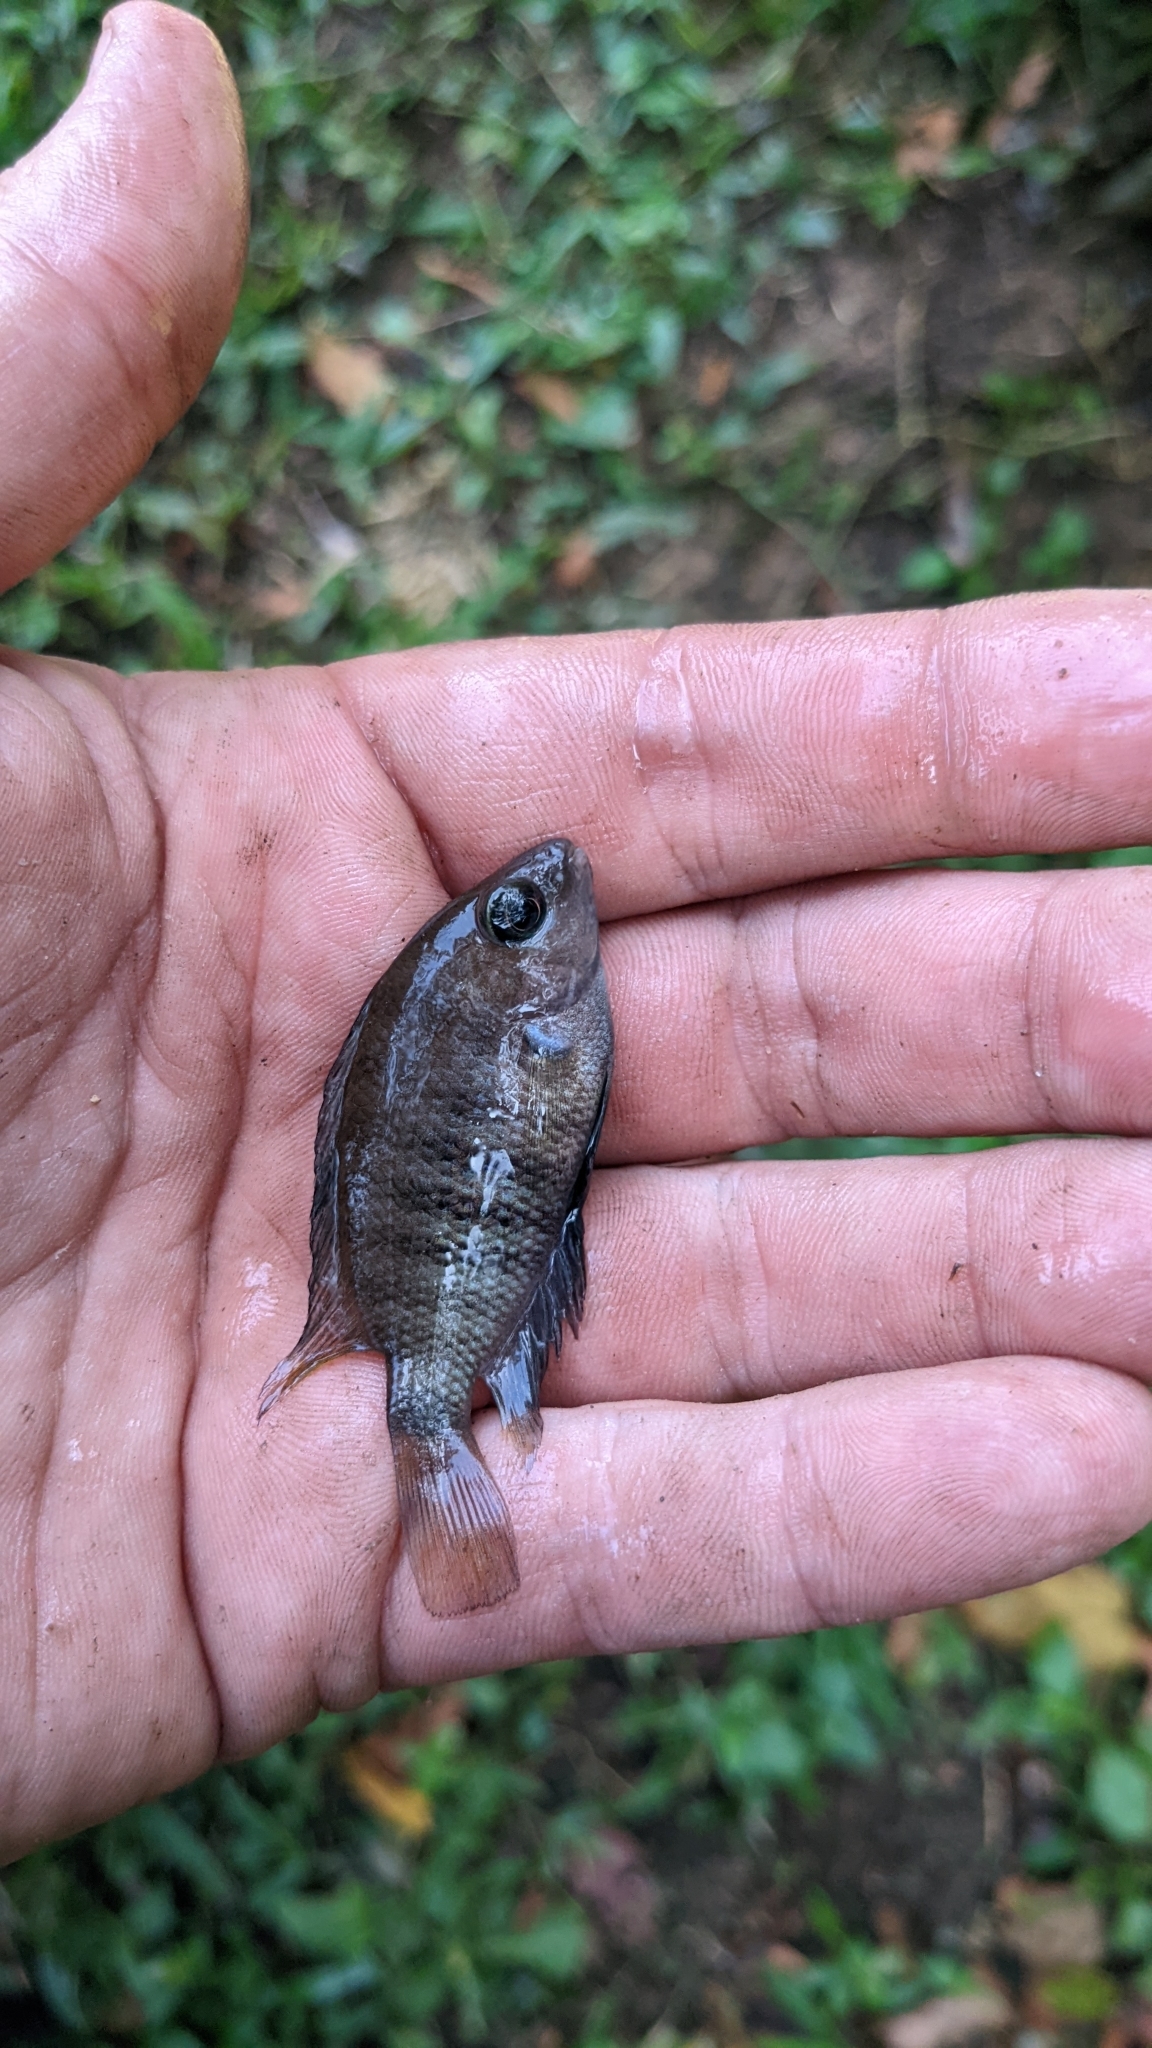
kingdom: Animalia
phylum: Chordata
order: Perciformes
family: Cichlidae
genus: Cryptoheros
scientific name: Cryptoheros chetumalensis
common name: Chetumal cichlid
